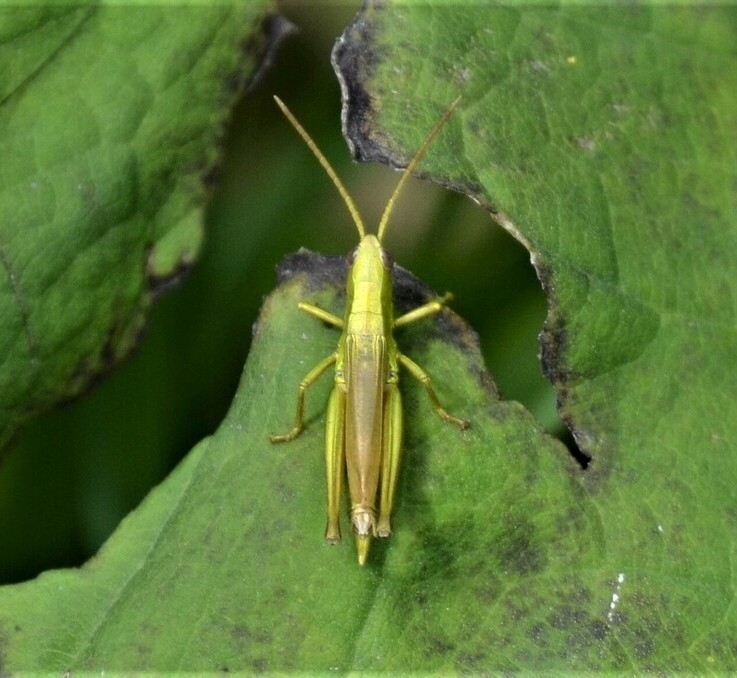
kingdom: Animalia
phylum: Arthropoda
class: Insecta
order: Orthoptera
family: Acrididae
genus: Chrysochraon
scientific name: Chrysochraon dispar
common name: Large gold grasshopper
